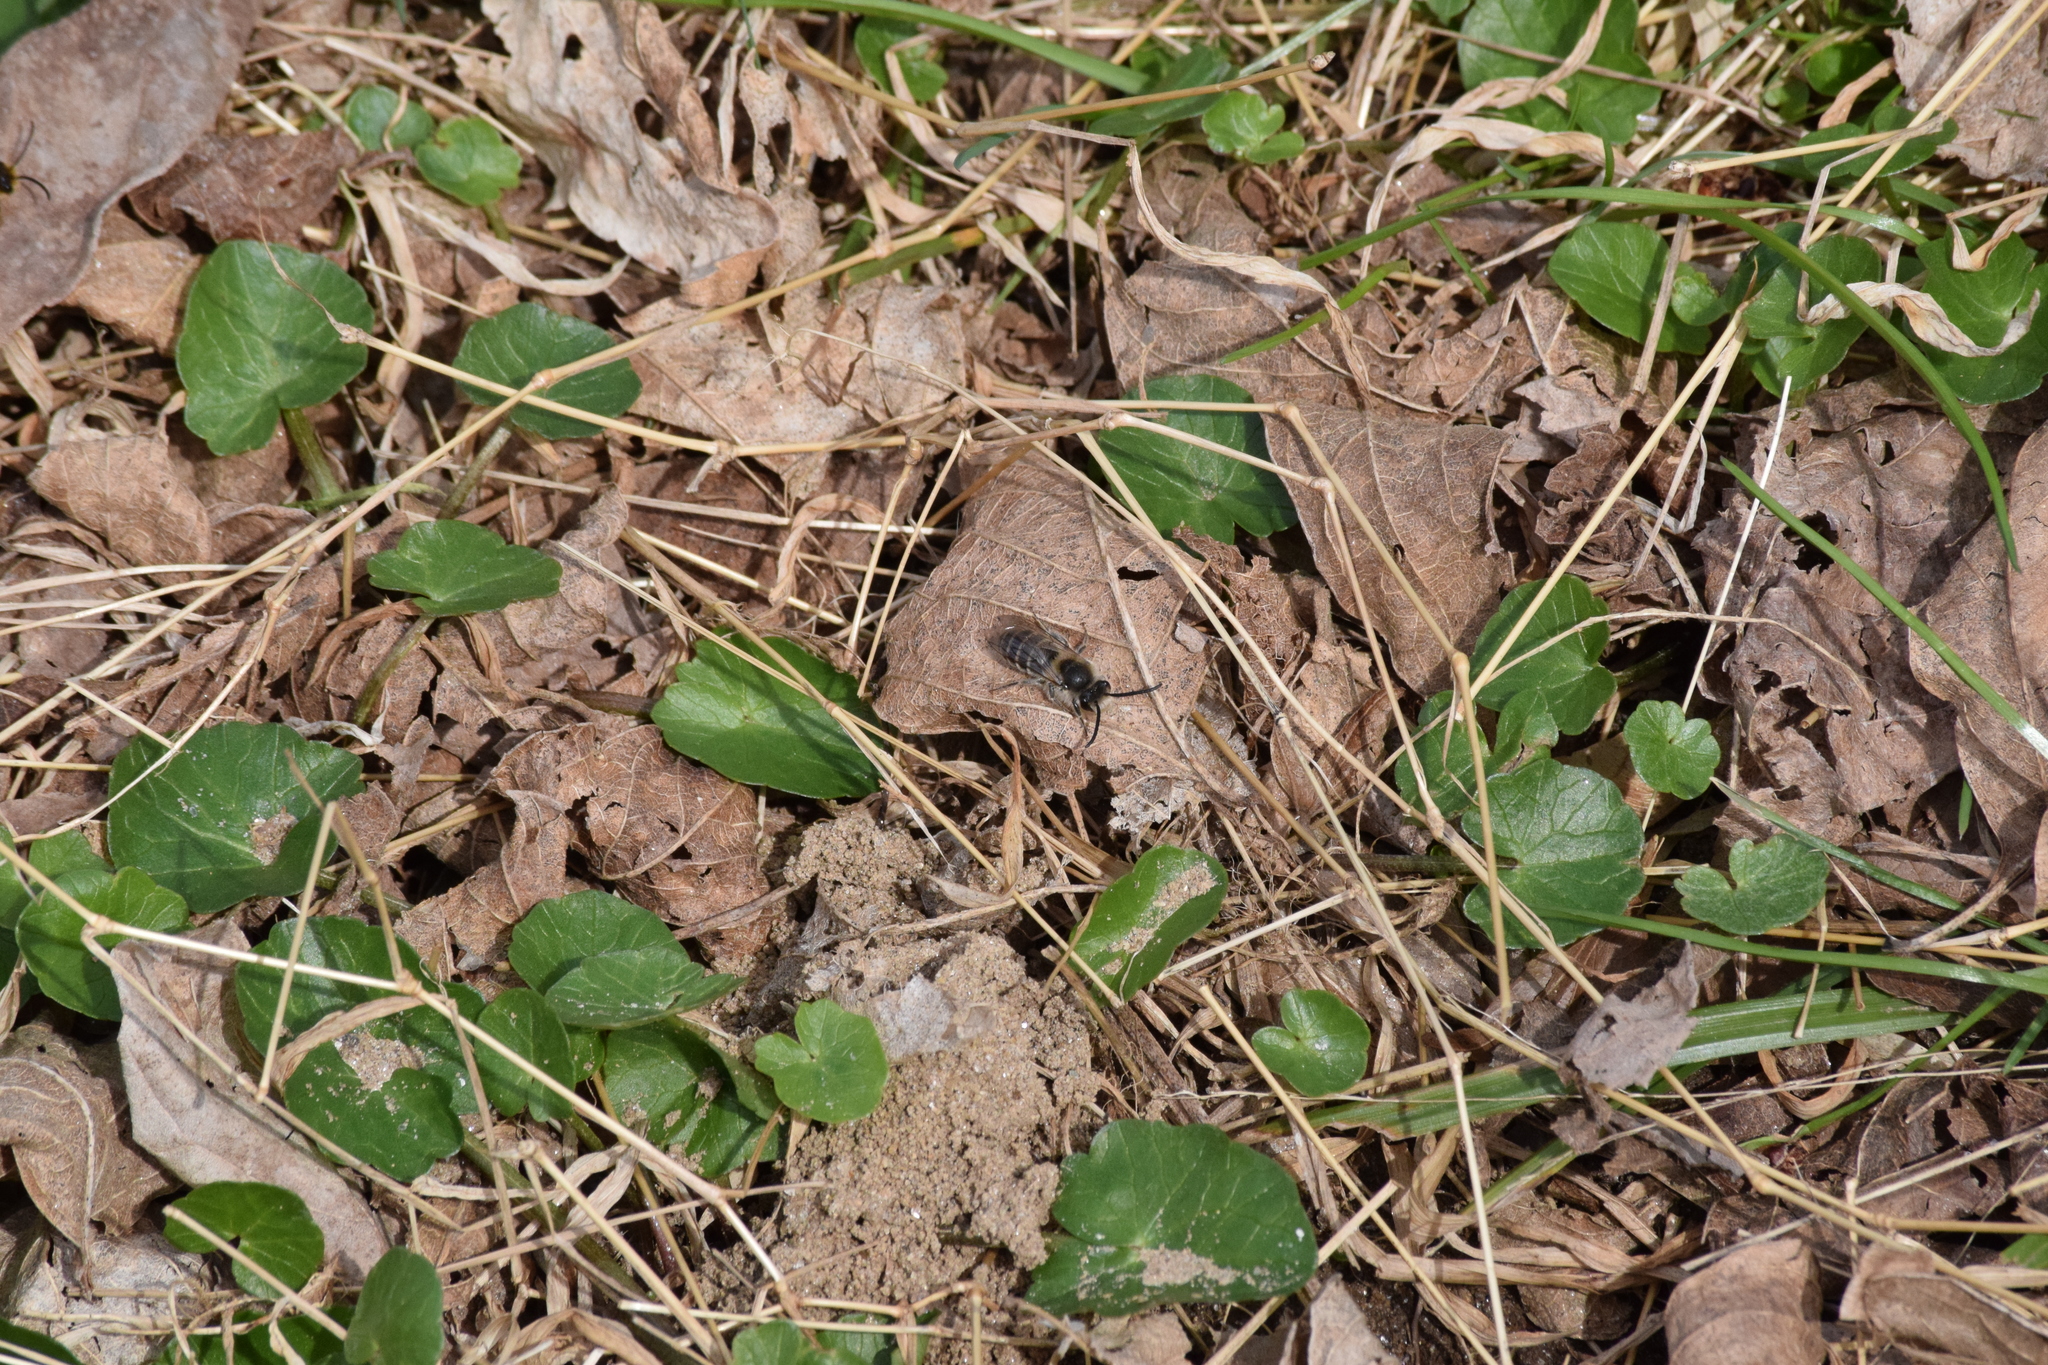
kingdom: Animalia
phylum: Arthropoda
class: Insecta
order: Hymenoptera
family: Colletidae
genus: Colletes
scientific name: Colletes inaequalis
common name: Unequal cellophane bee
